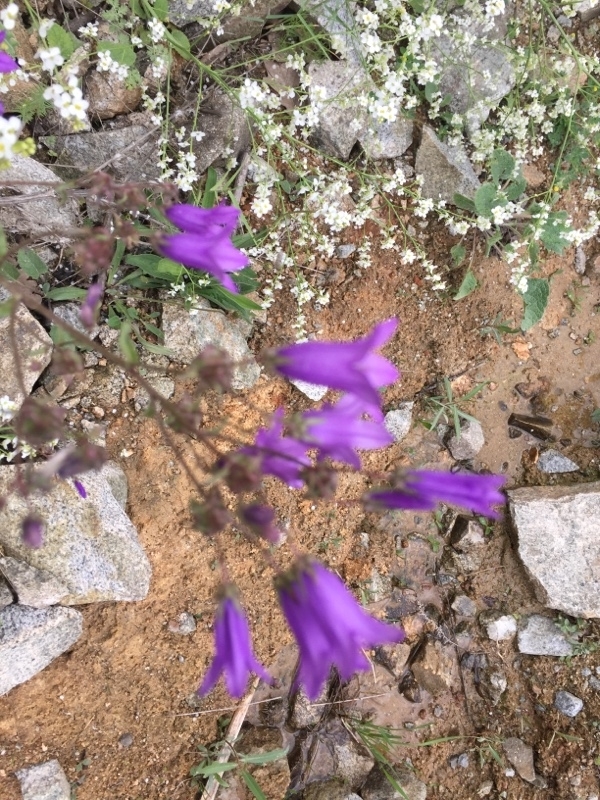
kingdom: Plantae
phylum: Tracheophyta
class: Magnoliopsida
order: Asterales
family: Campanulaceae
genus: Campanula
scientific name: Campanula sibirica
